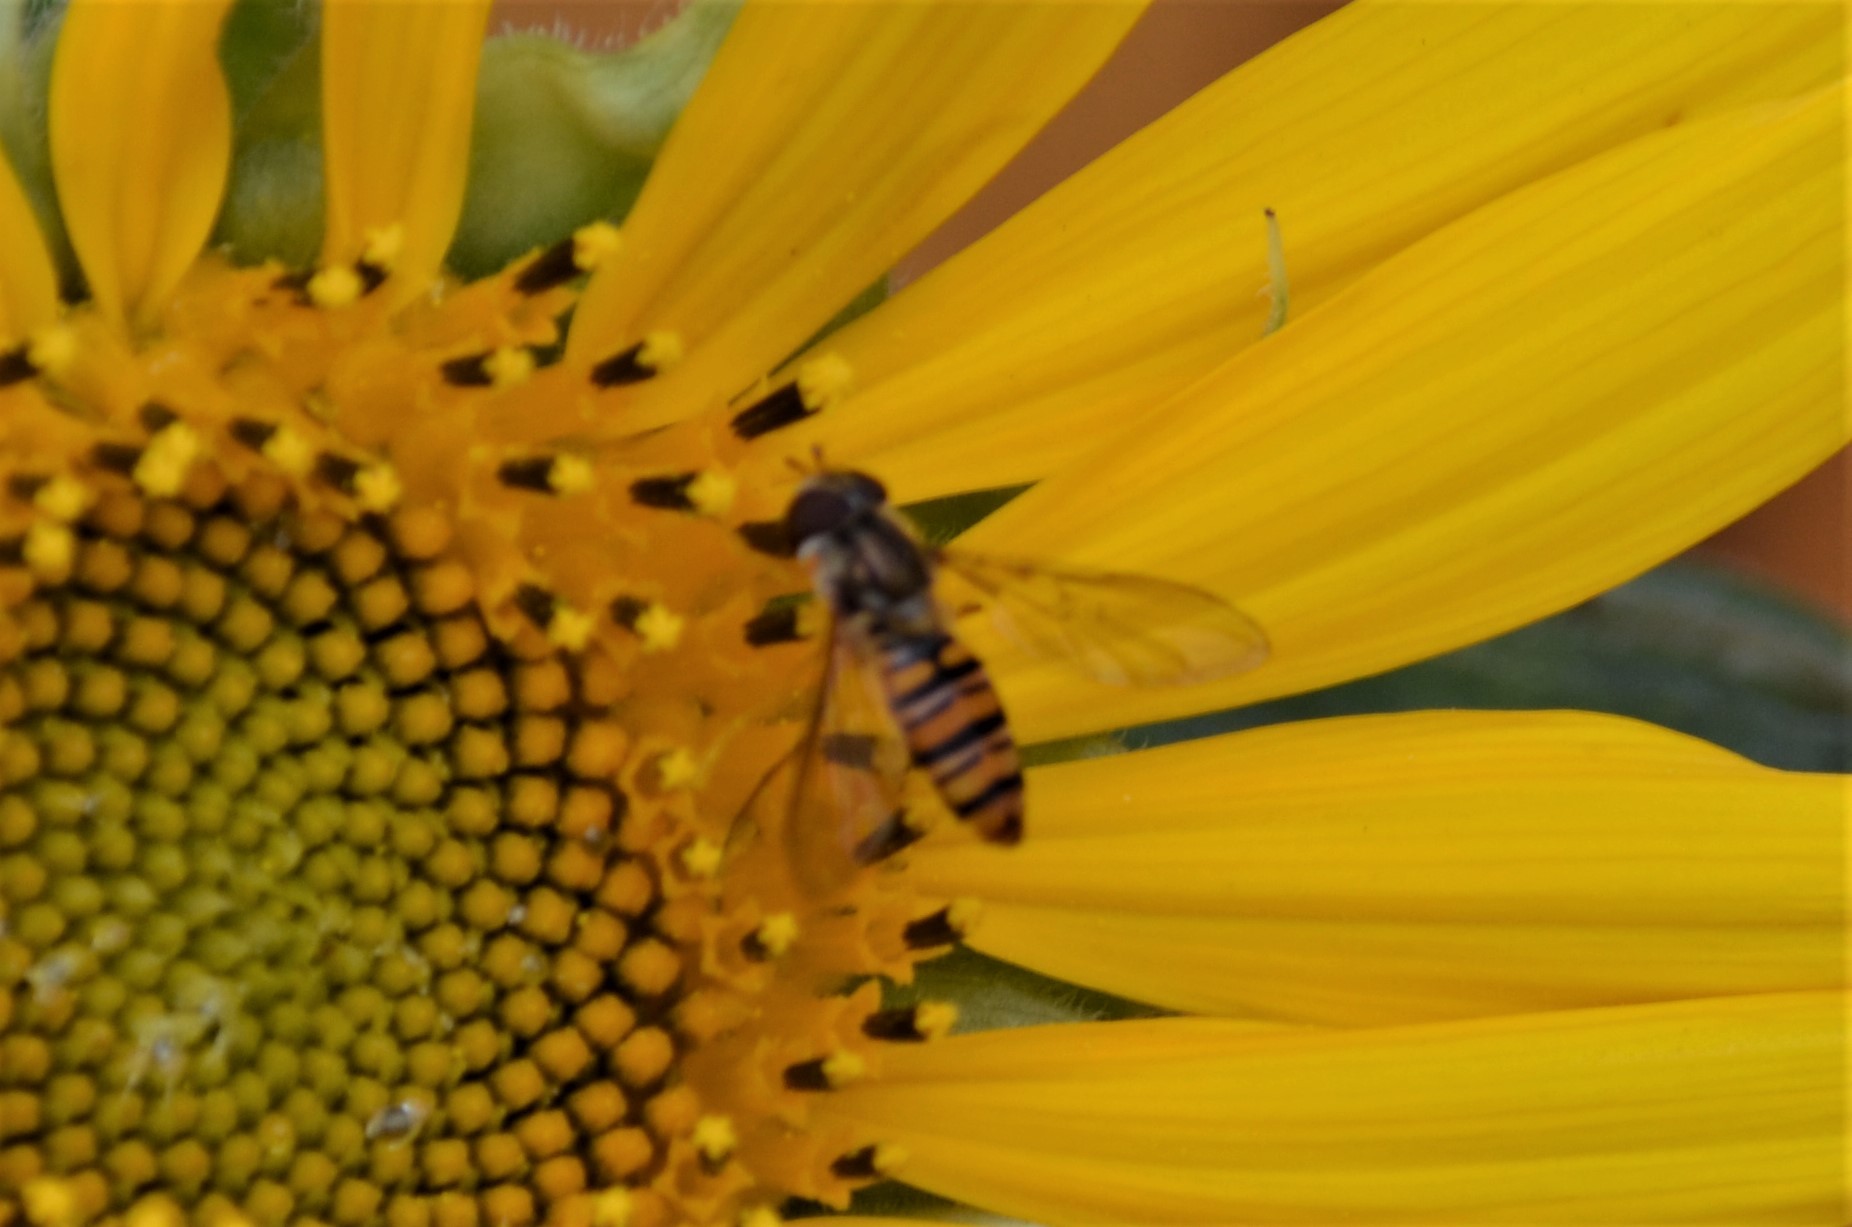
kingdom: Animalia
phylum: Arthropoda
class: Insecta
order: Diptera
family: Syrphidae
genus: Episyrphus
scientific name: Episyrphus balteatus
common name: Marmalade hoverfly
